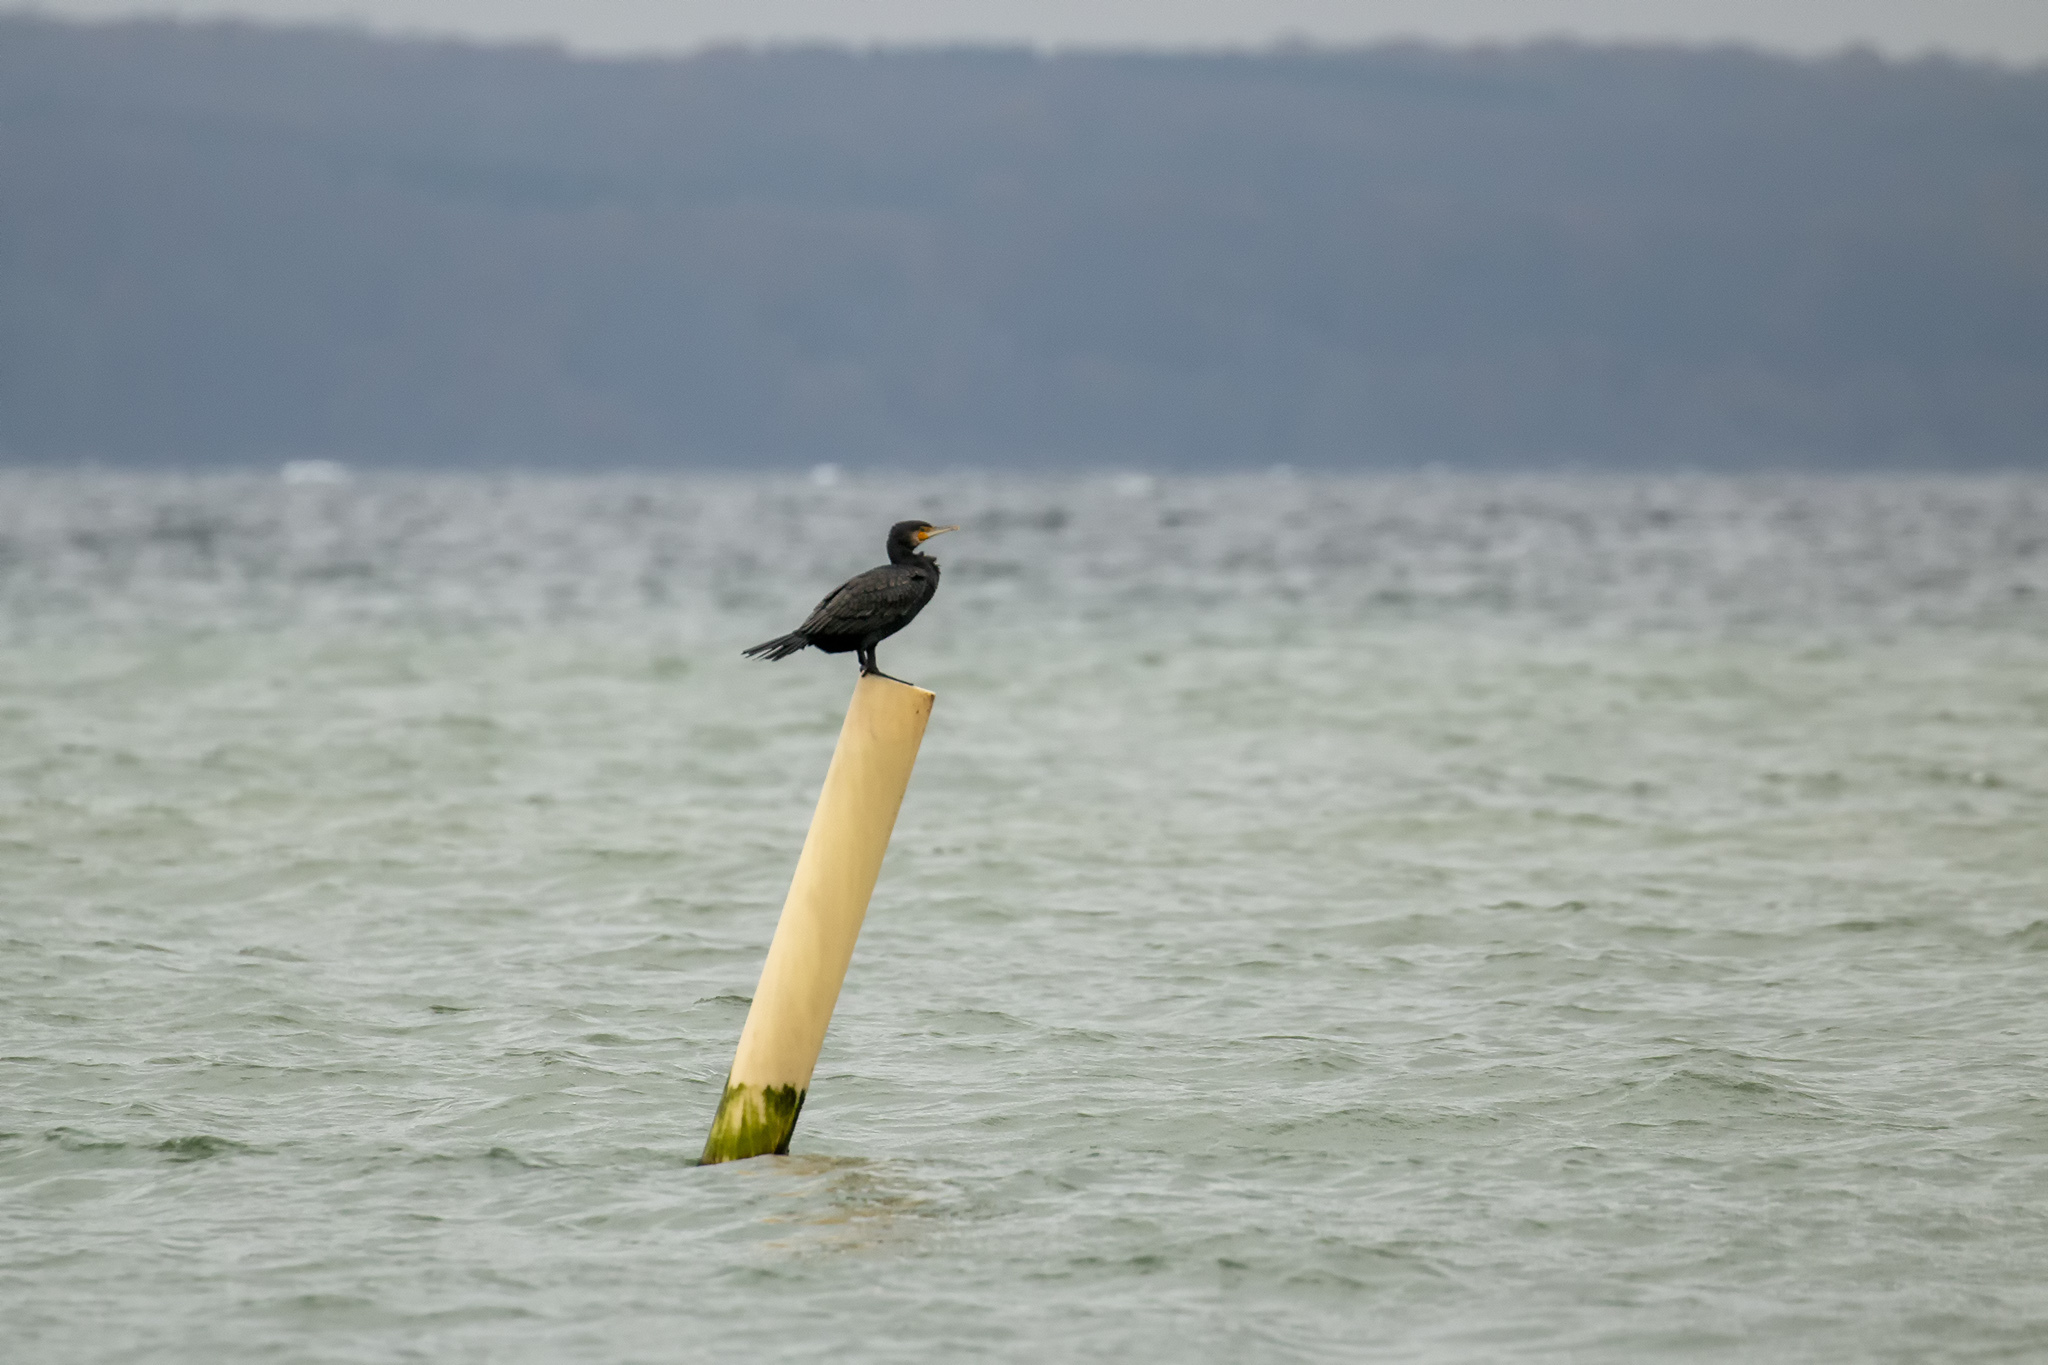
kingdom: Animalia
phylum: Chordata
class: Aves
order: Suliformes
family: Phalacrocoracidae
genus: Phalacrocorax
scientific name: Phalacrocorax carbo
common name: Great cormorant
